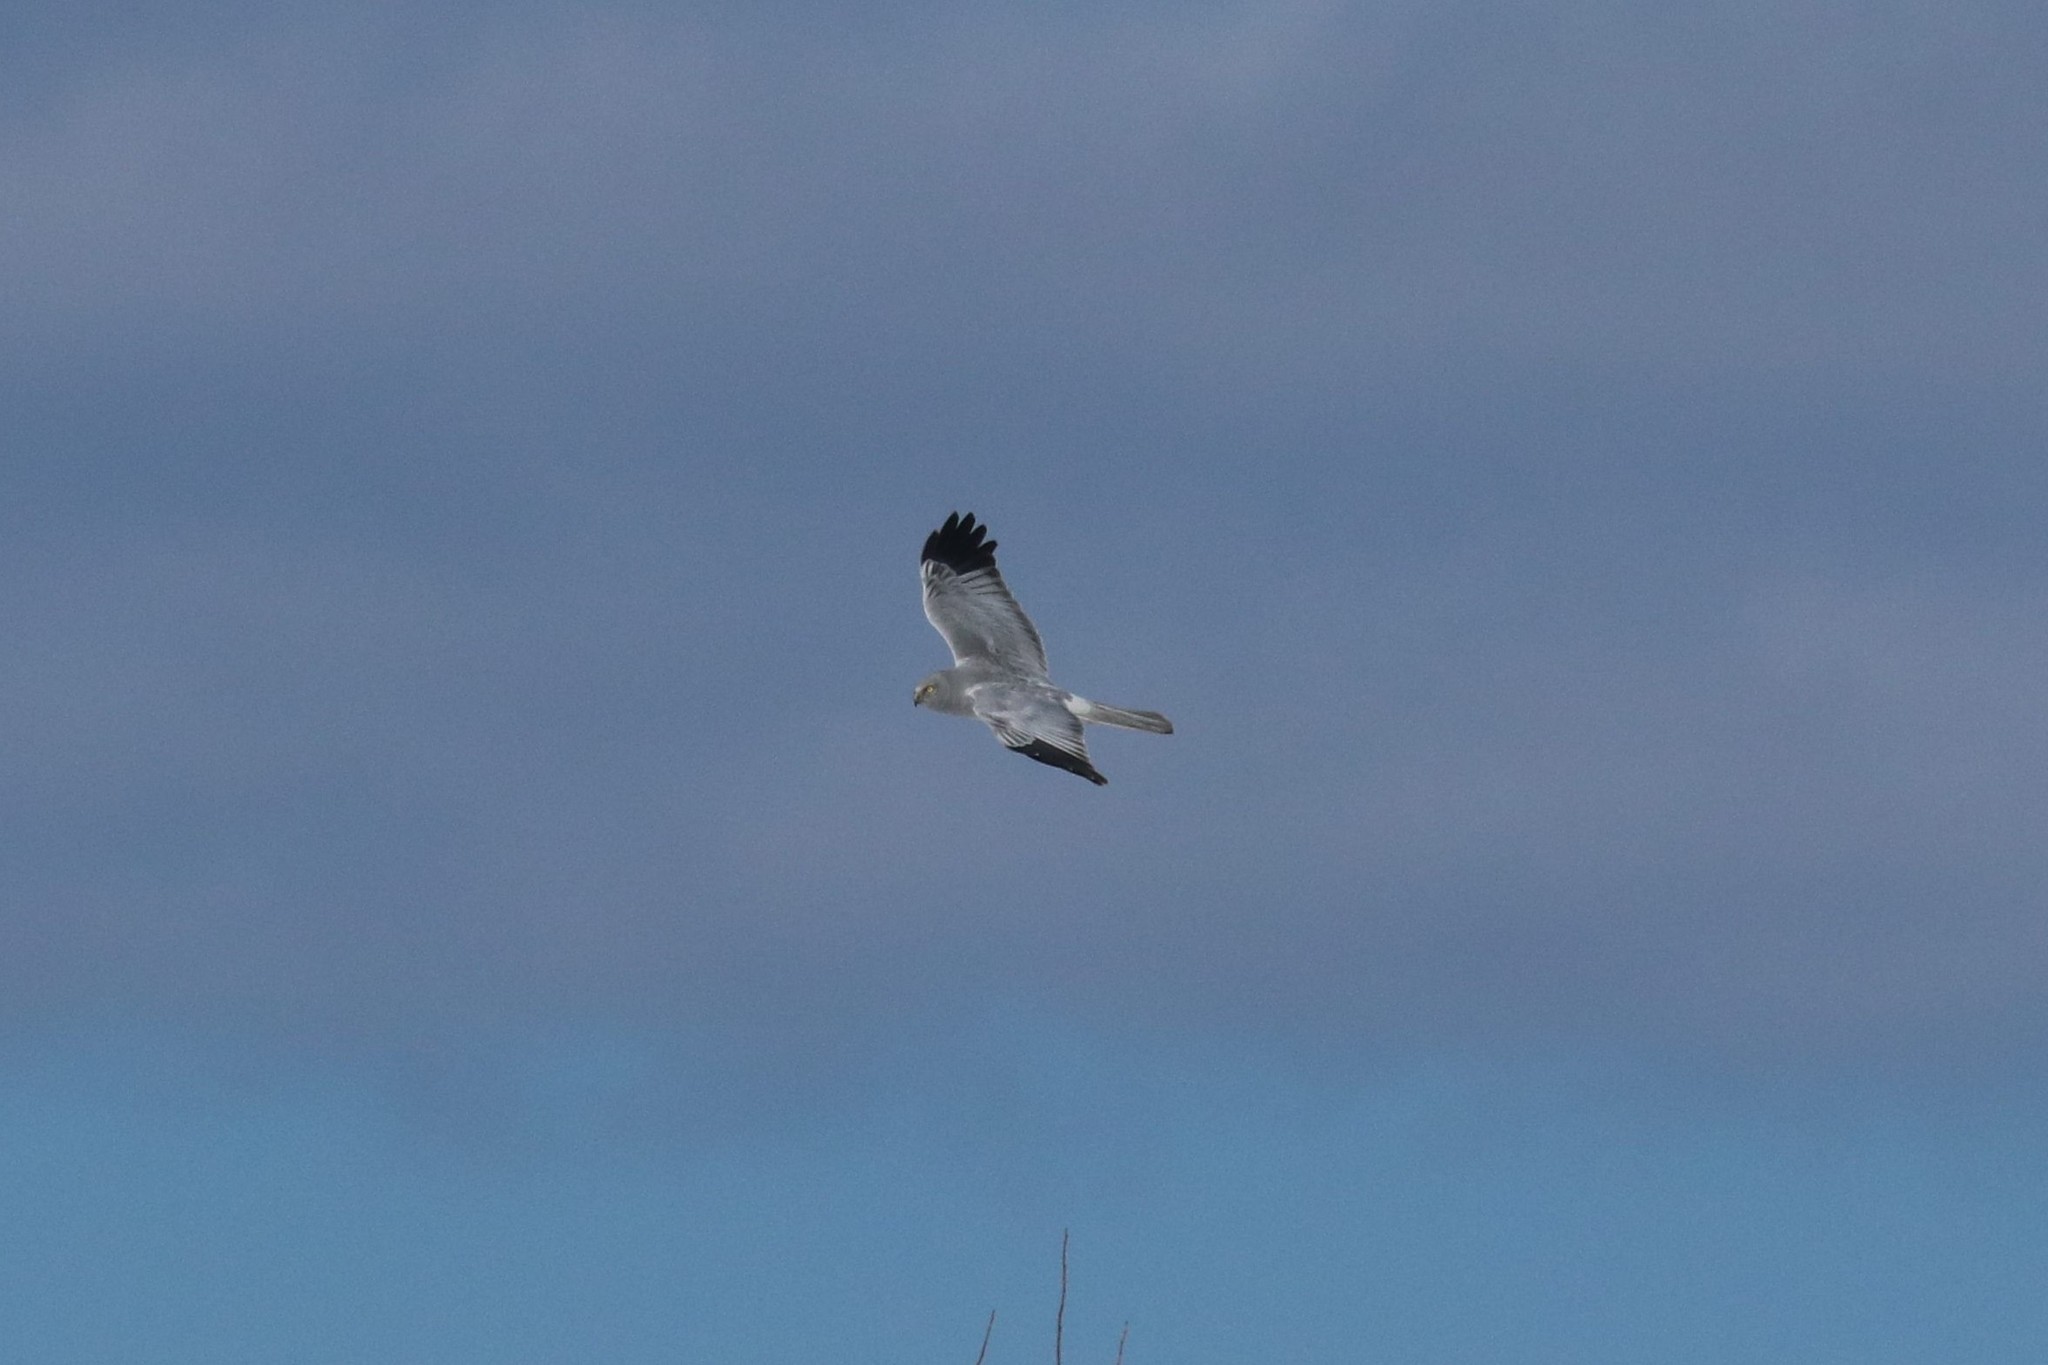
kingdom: Animalia
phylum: Chordata
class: Aves
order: Accipitriformes
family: Accipitridae
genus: Circus
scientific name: Circus cyaneus
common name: Hen harrier
